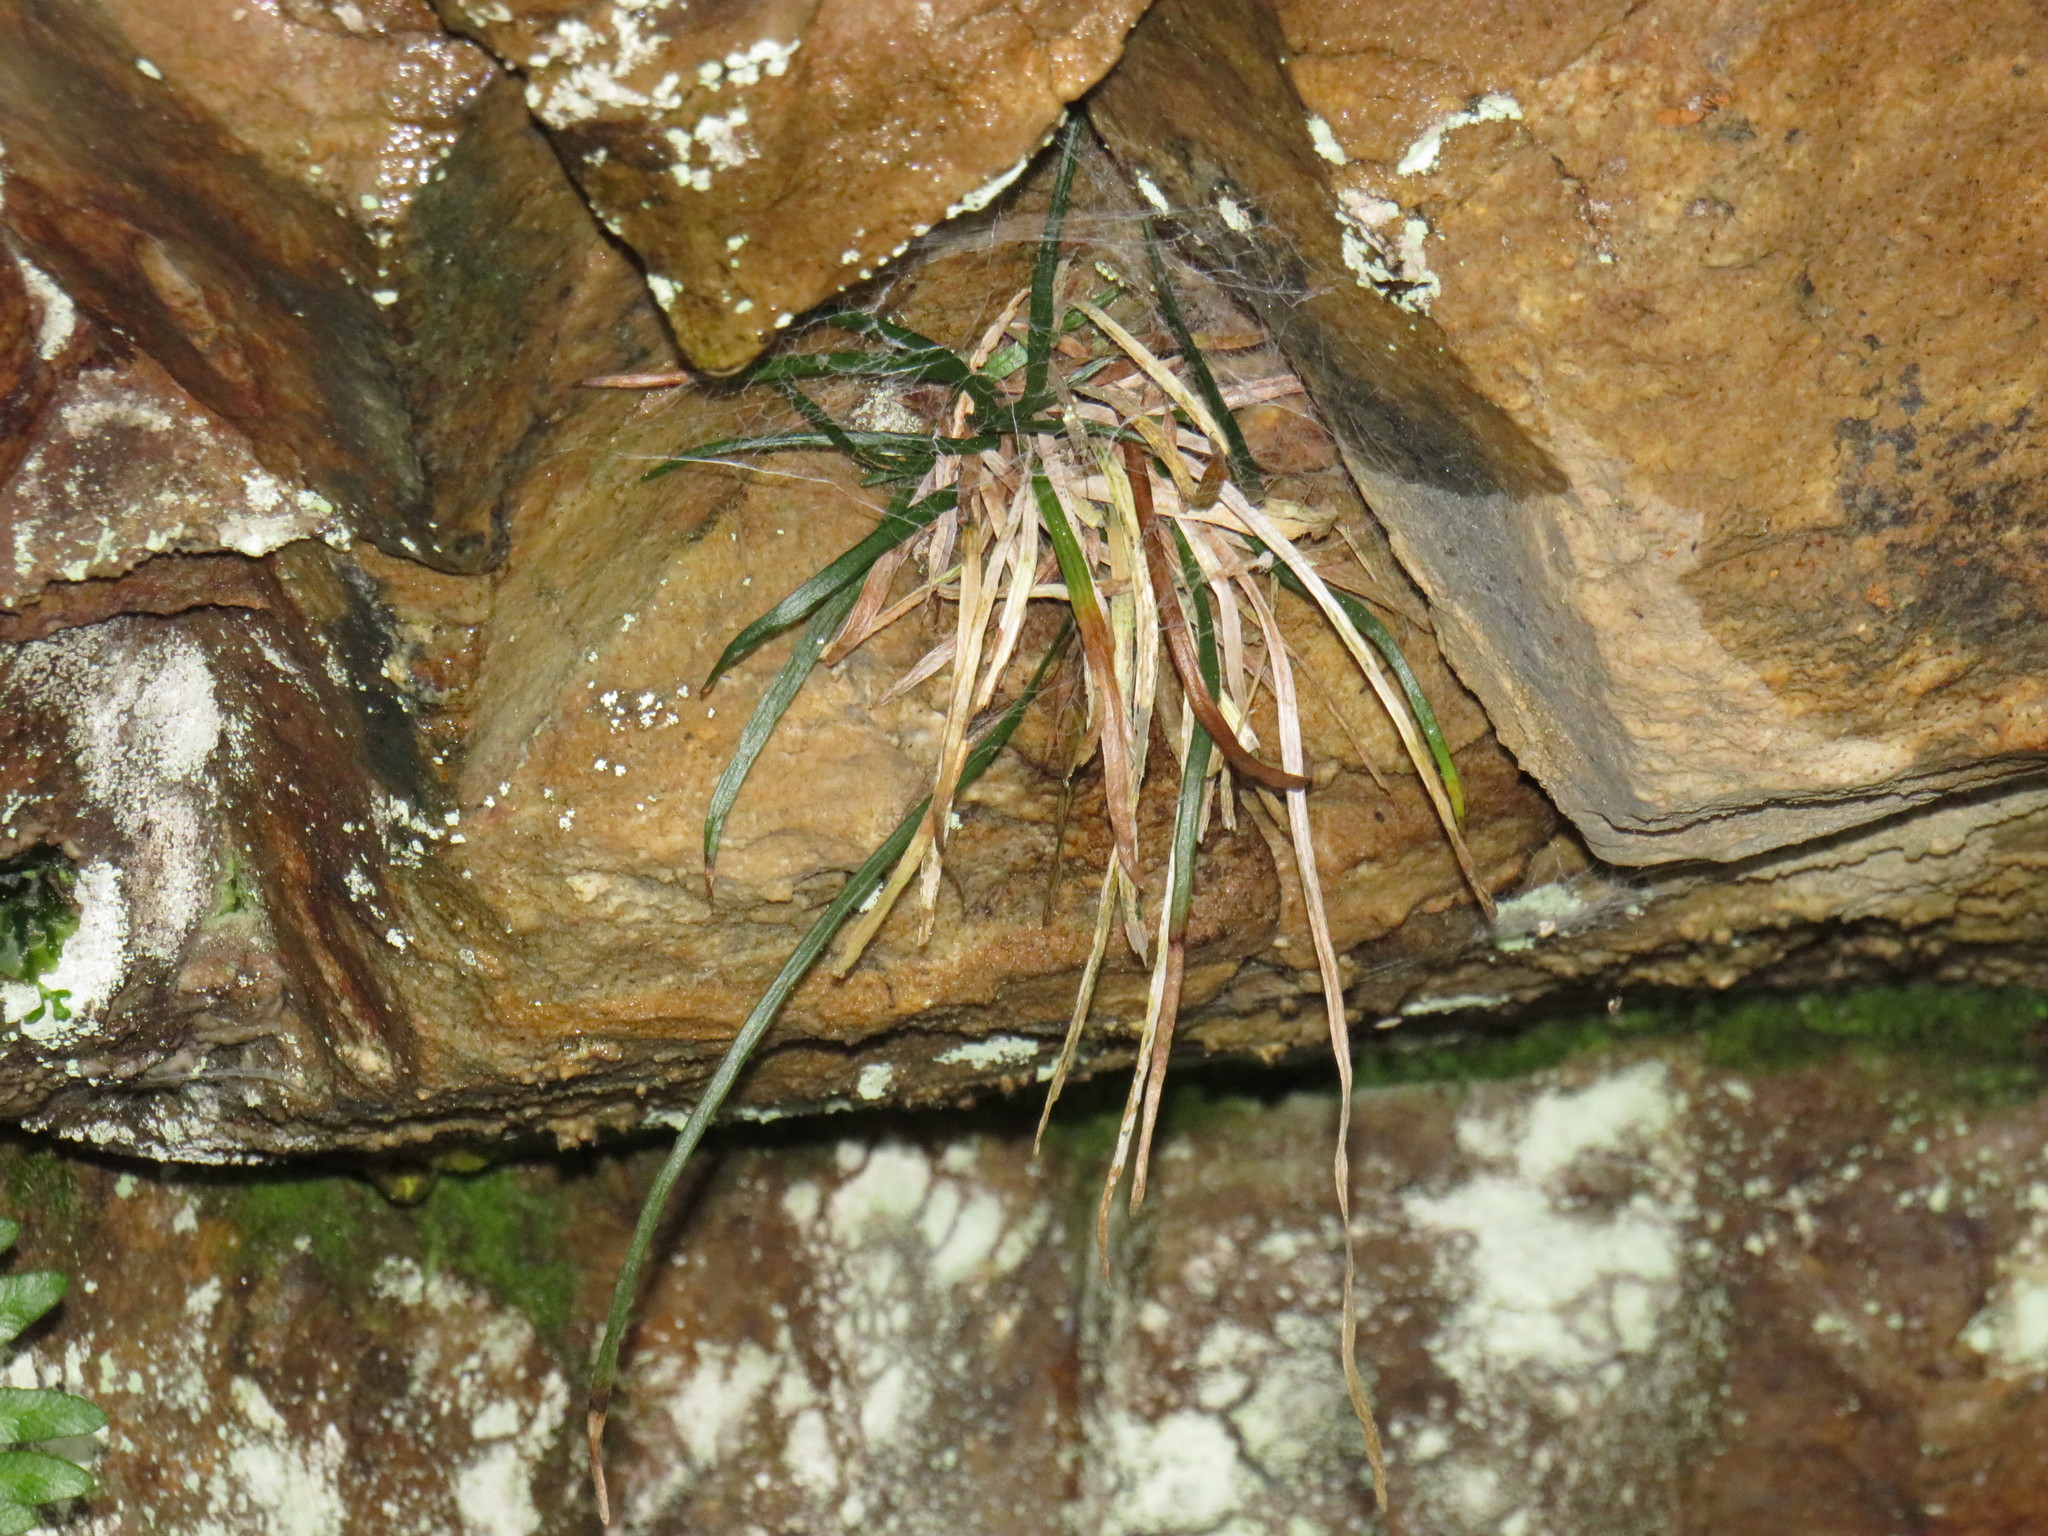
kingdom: Plantae
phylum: Tracheophyta
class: Polypodiopsida
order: Polypodiales
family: Pteridaceae
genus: Vittaria
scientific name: Vittaria isoetifolia
